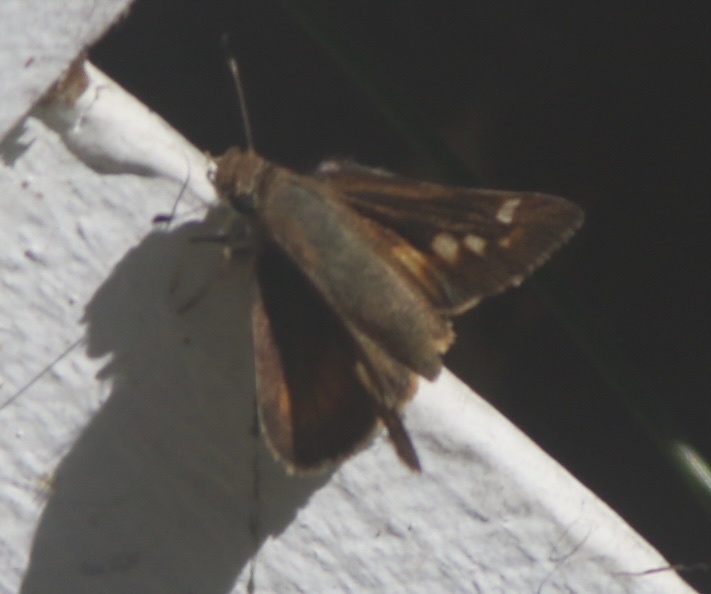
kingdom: Animalia
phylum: Arthropoda
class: Insecta
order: Lepidoptera
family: Hesperiidae
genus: Lon
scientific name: Lon melane
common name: Umber skipper
